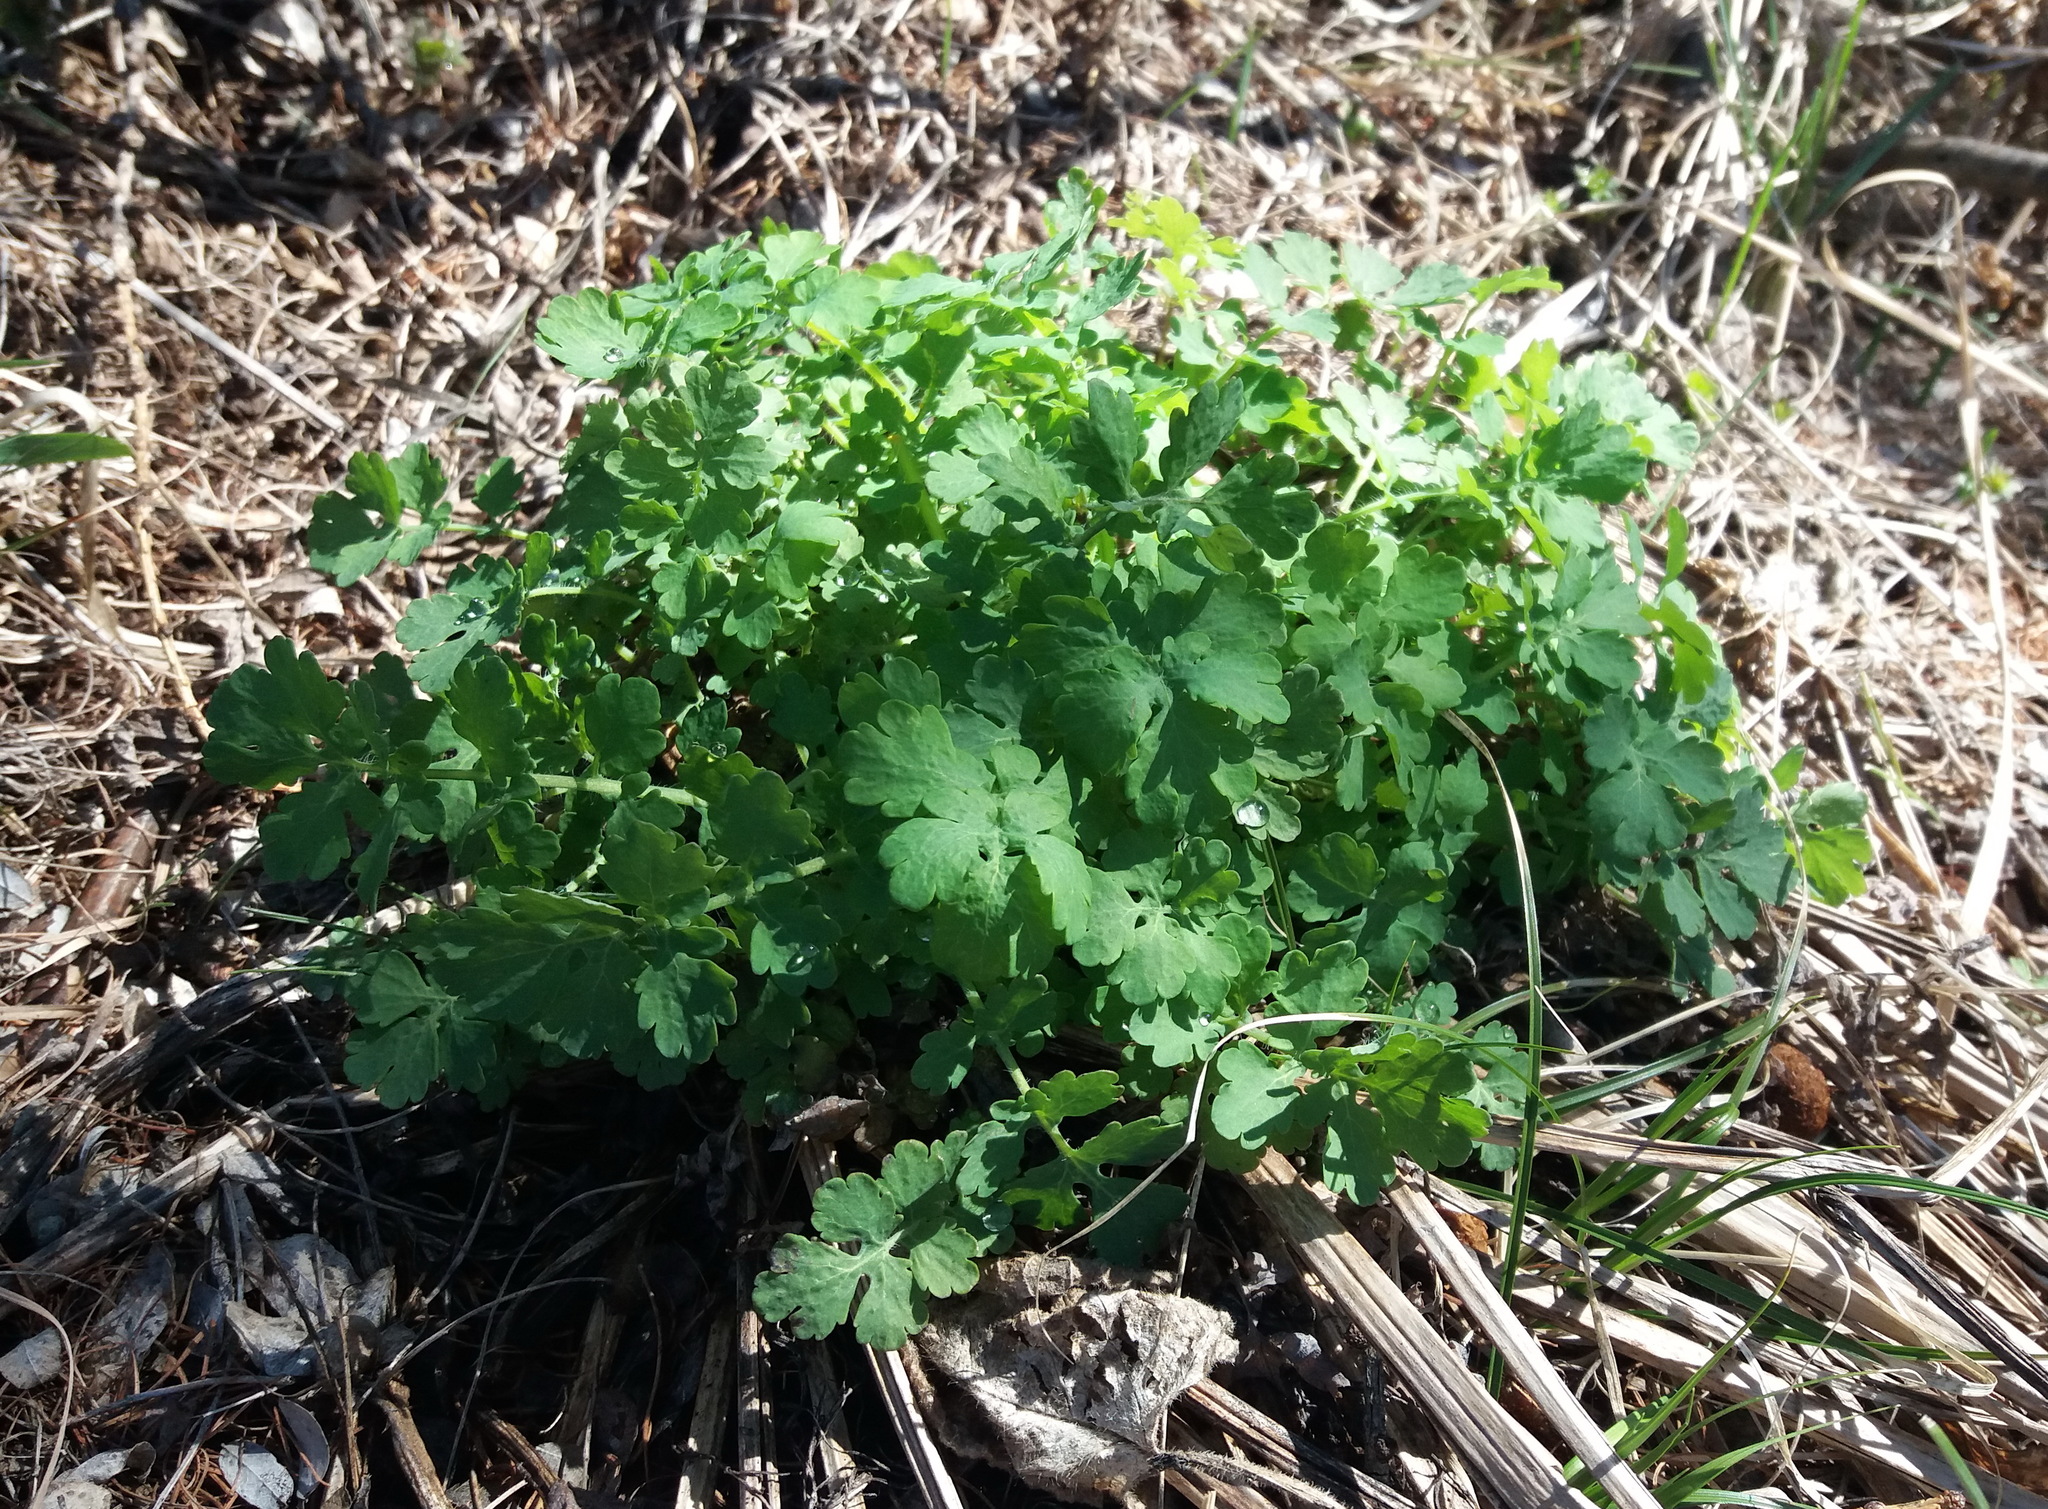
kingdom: Plantae
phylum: Tracheophyta
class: Magnoliopsida
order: Ranunculales
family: Papaveraceae
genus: Chelidonium
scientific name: Chelidonium majus
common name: Greater celandine
